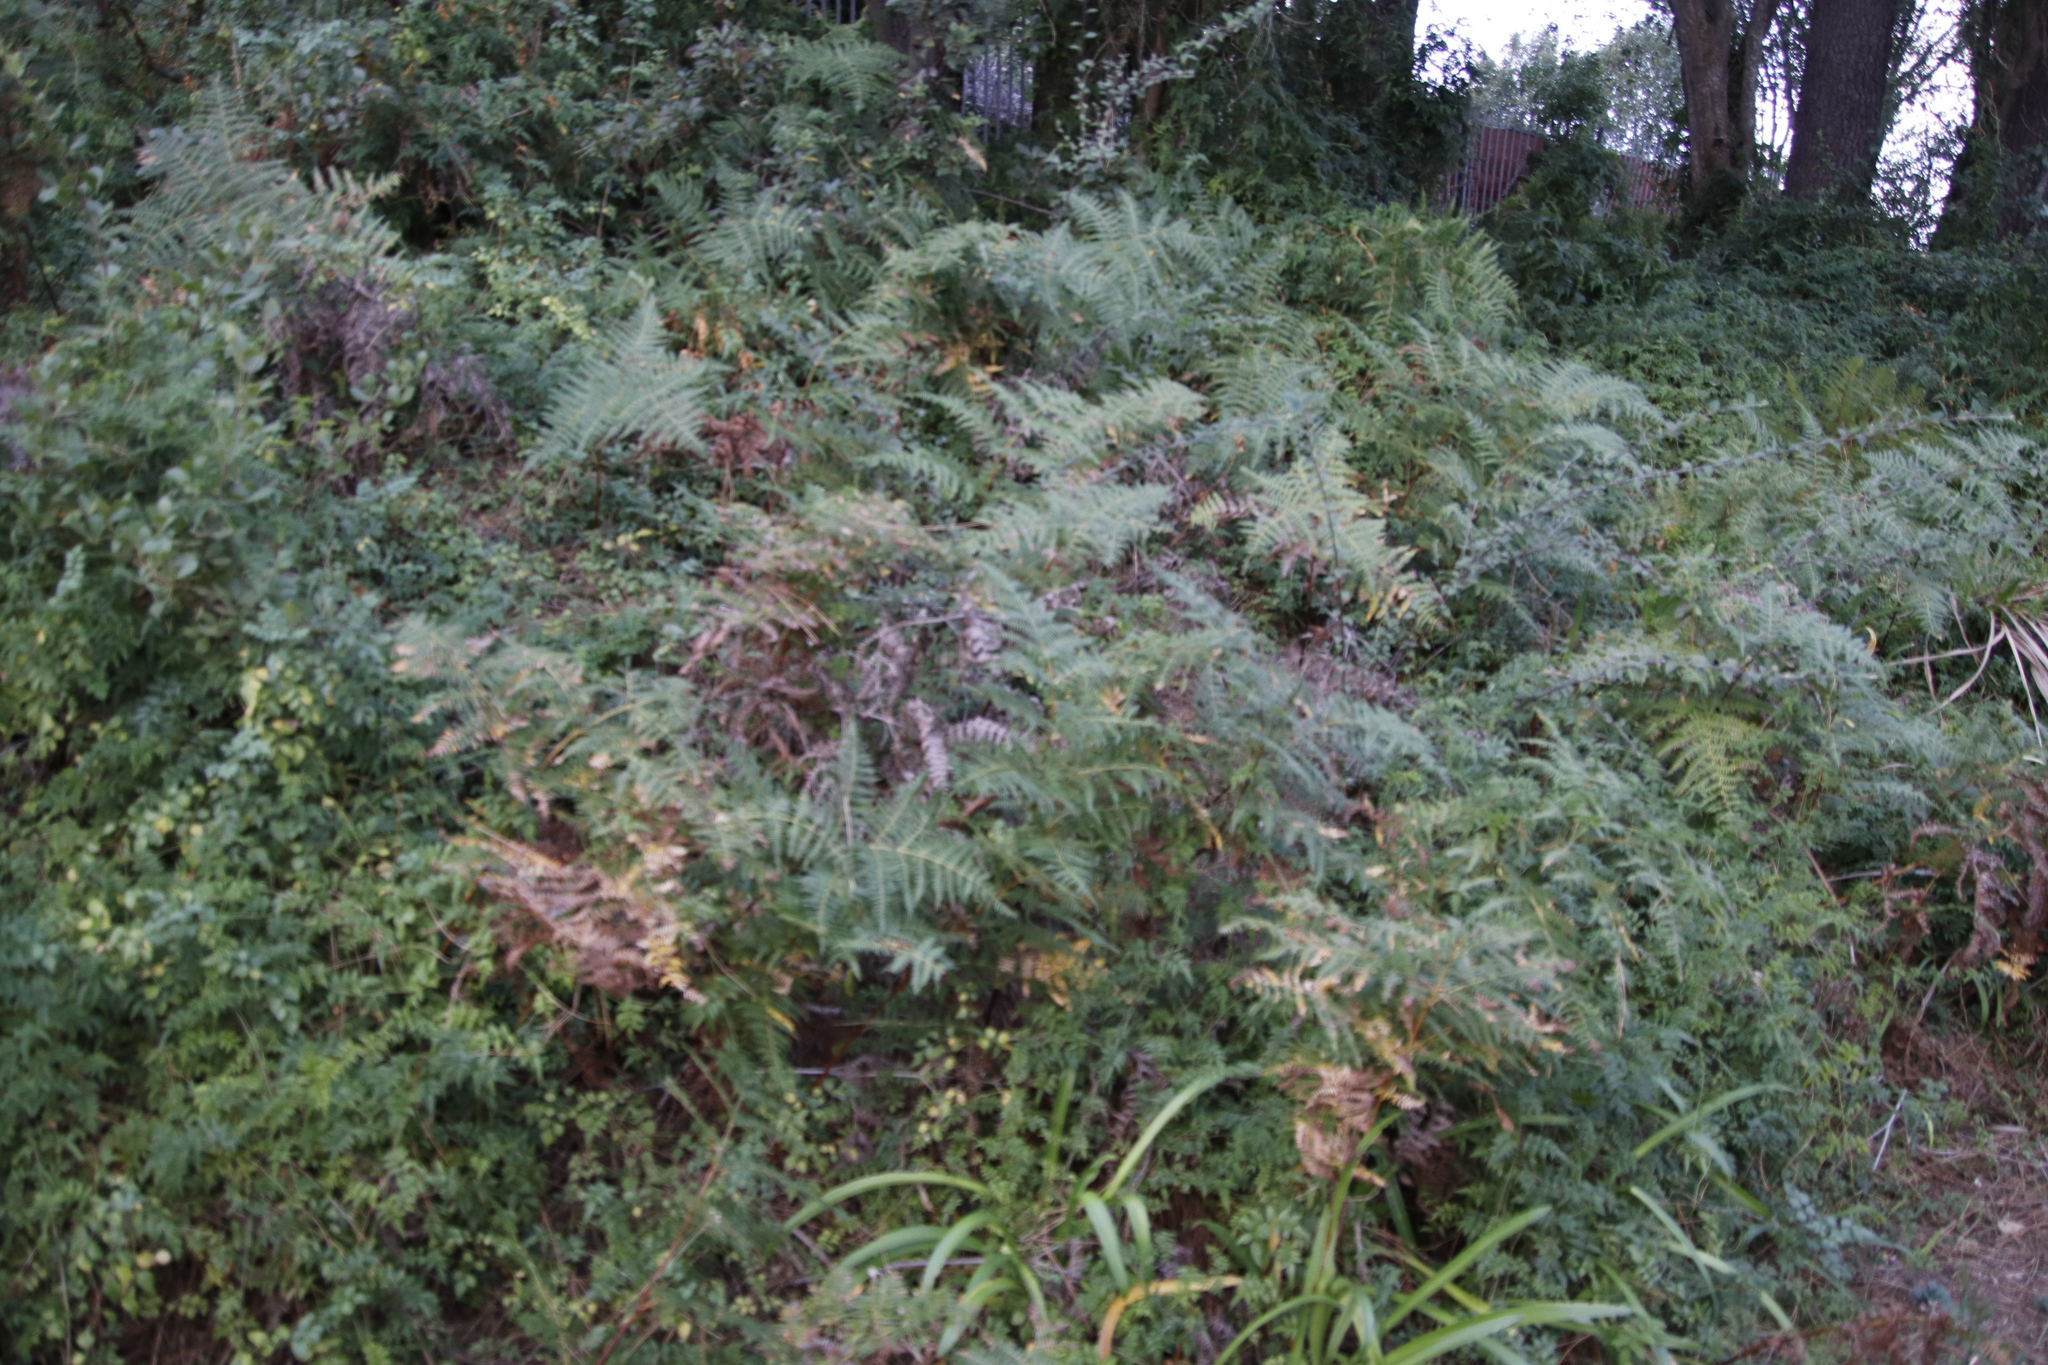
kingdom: Plantae
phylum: Tracheophyta
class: Polypodiopsida
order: Polypodiales
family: Dennstaedtiaceae
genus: Pteridium
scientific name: Pteridium aquilinum
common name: Bracken
